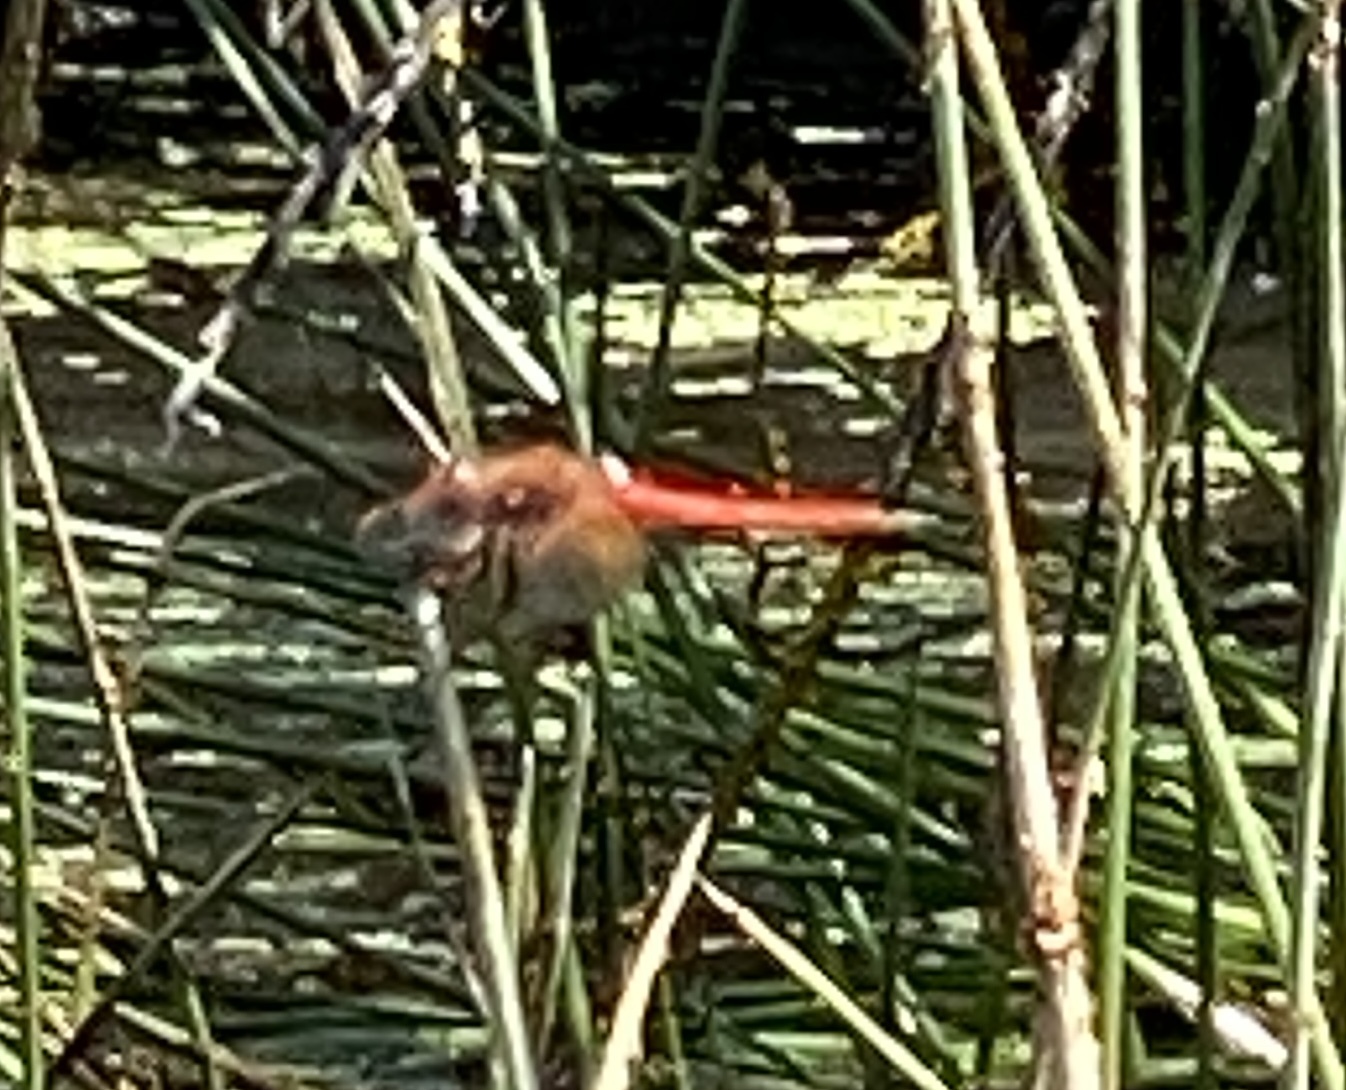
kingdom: Animalia
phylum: Arthropoda
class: Insecta
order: Odonata
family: Libellulidae
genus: Sympetrum
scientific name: Sympetrum illotum
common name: Cardinal meadowhawk
